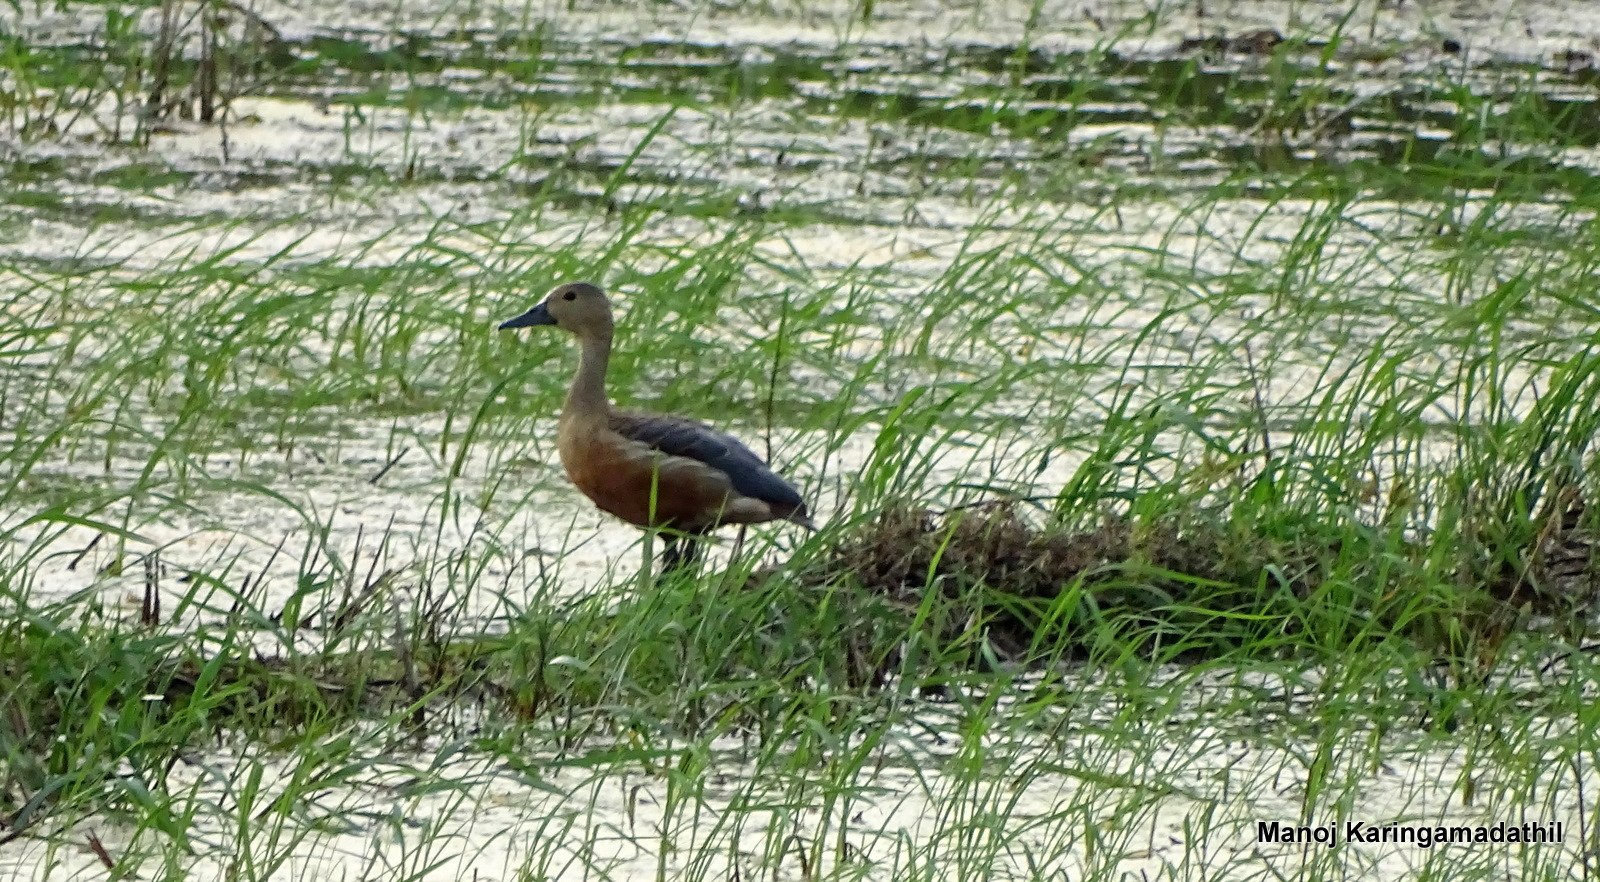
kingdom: Animalia
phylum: Chordata
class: Aves
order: Anseriformes
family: Anatidae
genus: Dendrocygna
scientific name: Dendrocygna javanica
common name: Lesser whistling-duck
